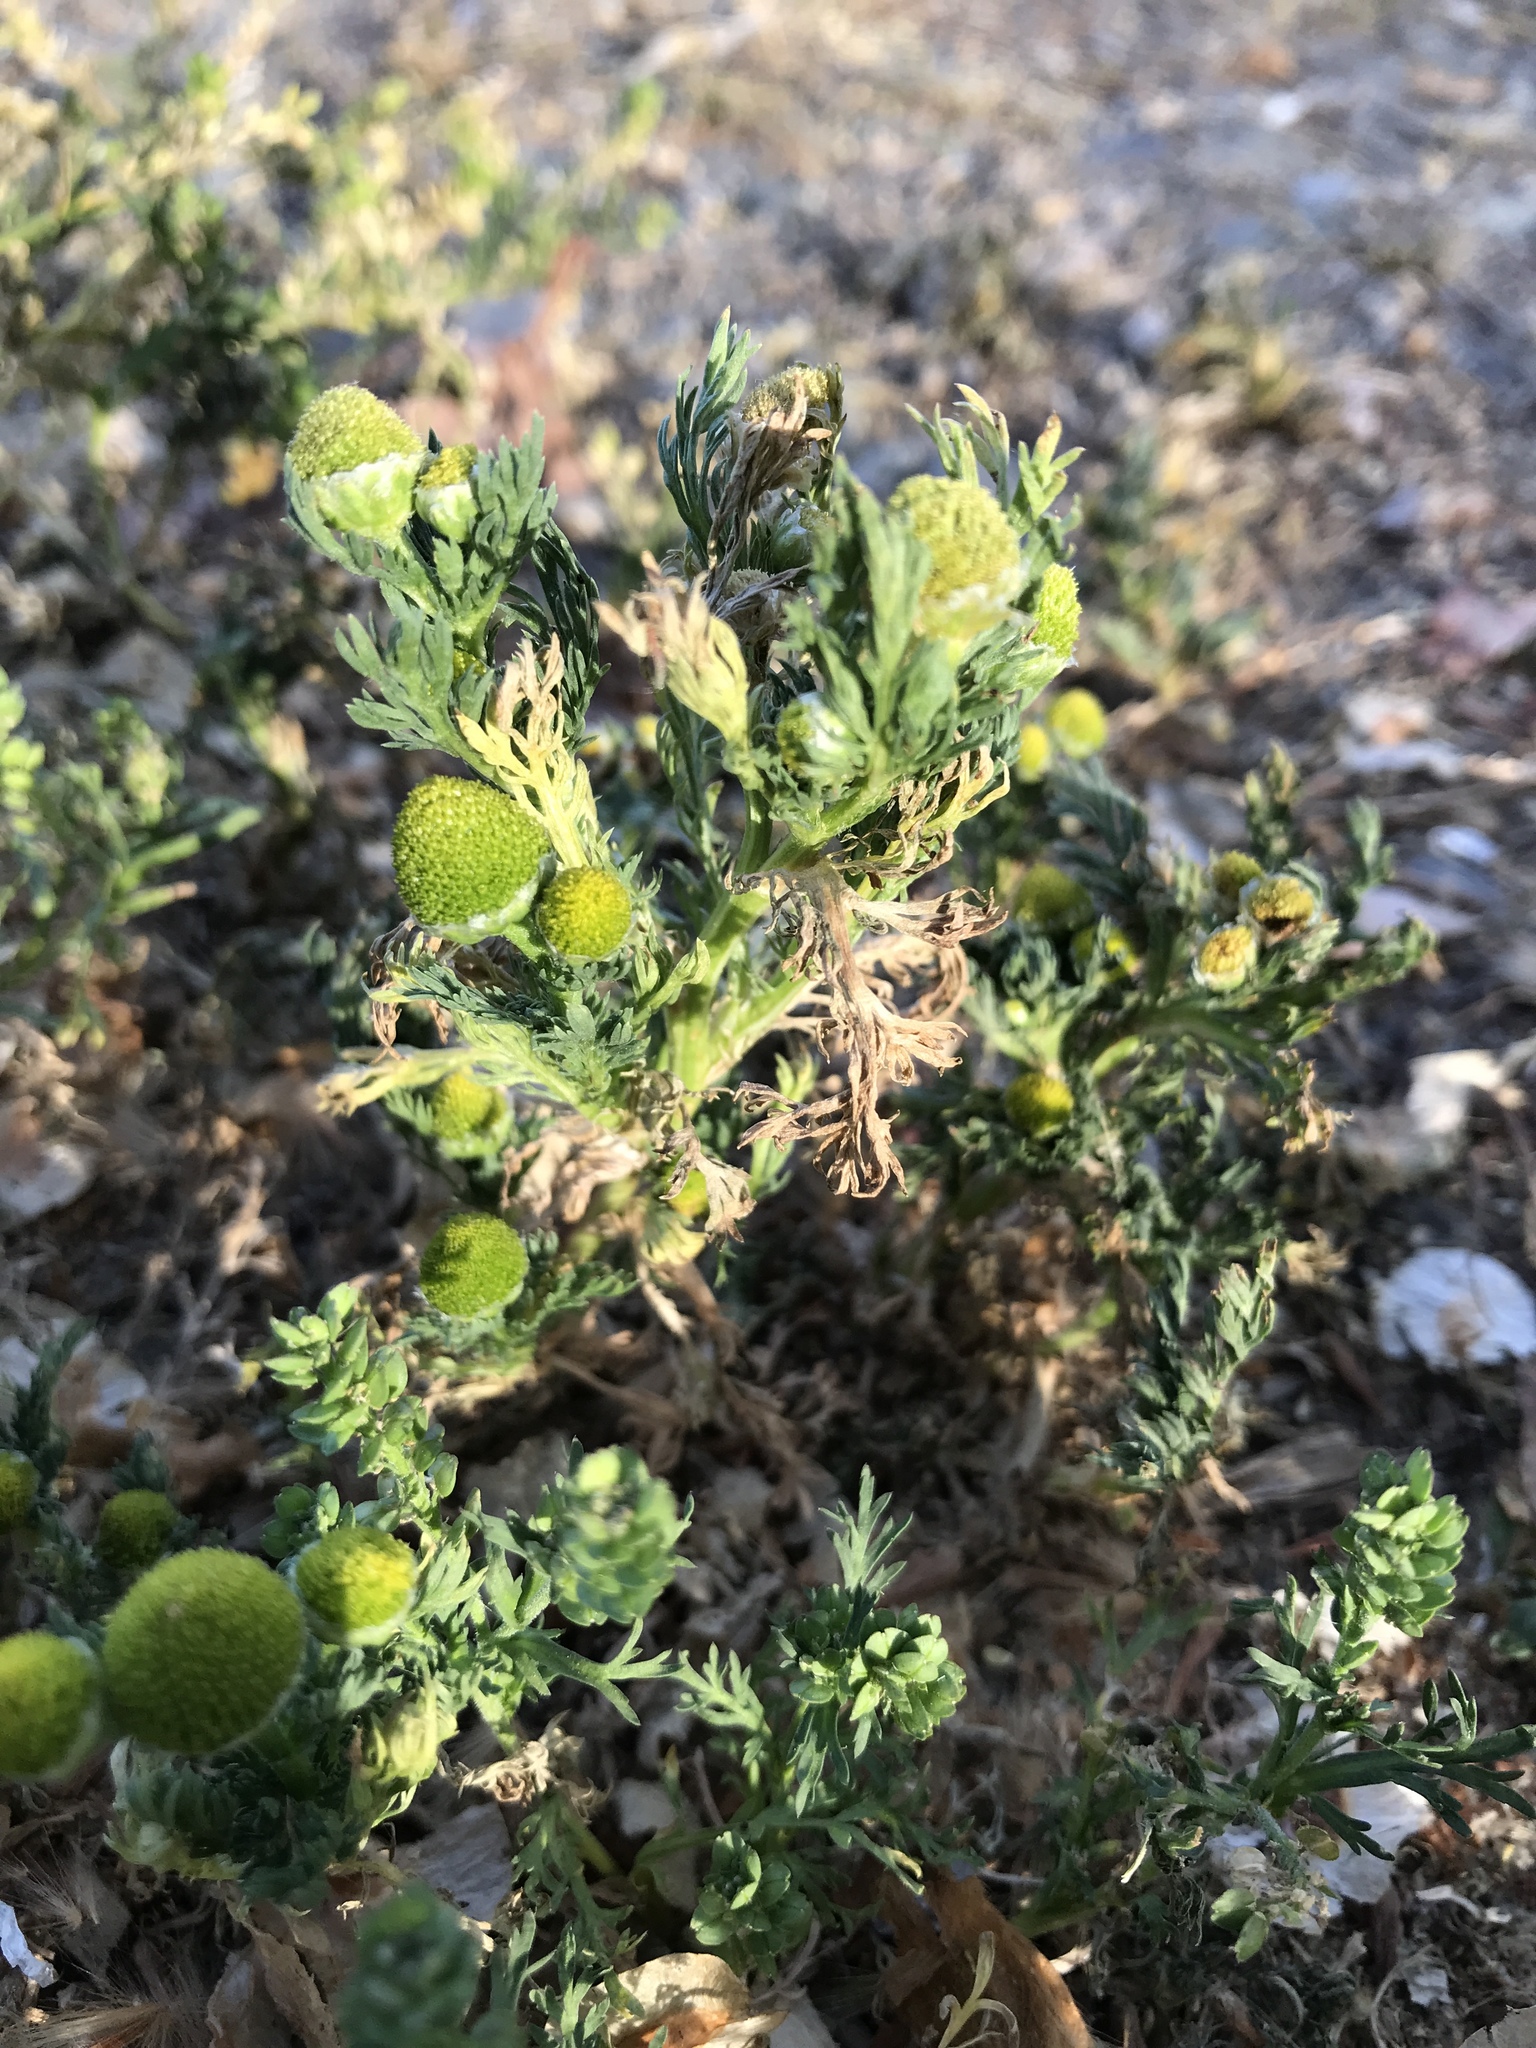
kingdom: Plantae
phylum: Tracheophyta
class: Magnoliopsida
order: Asterales
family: Asteraceae
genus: Matricaria
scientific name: Matricaria discoidea
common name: Disc mayweed
